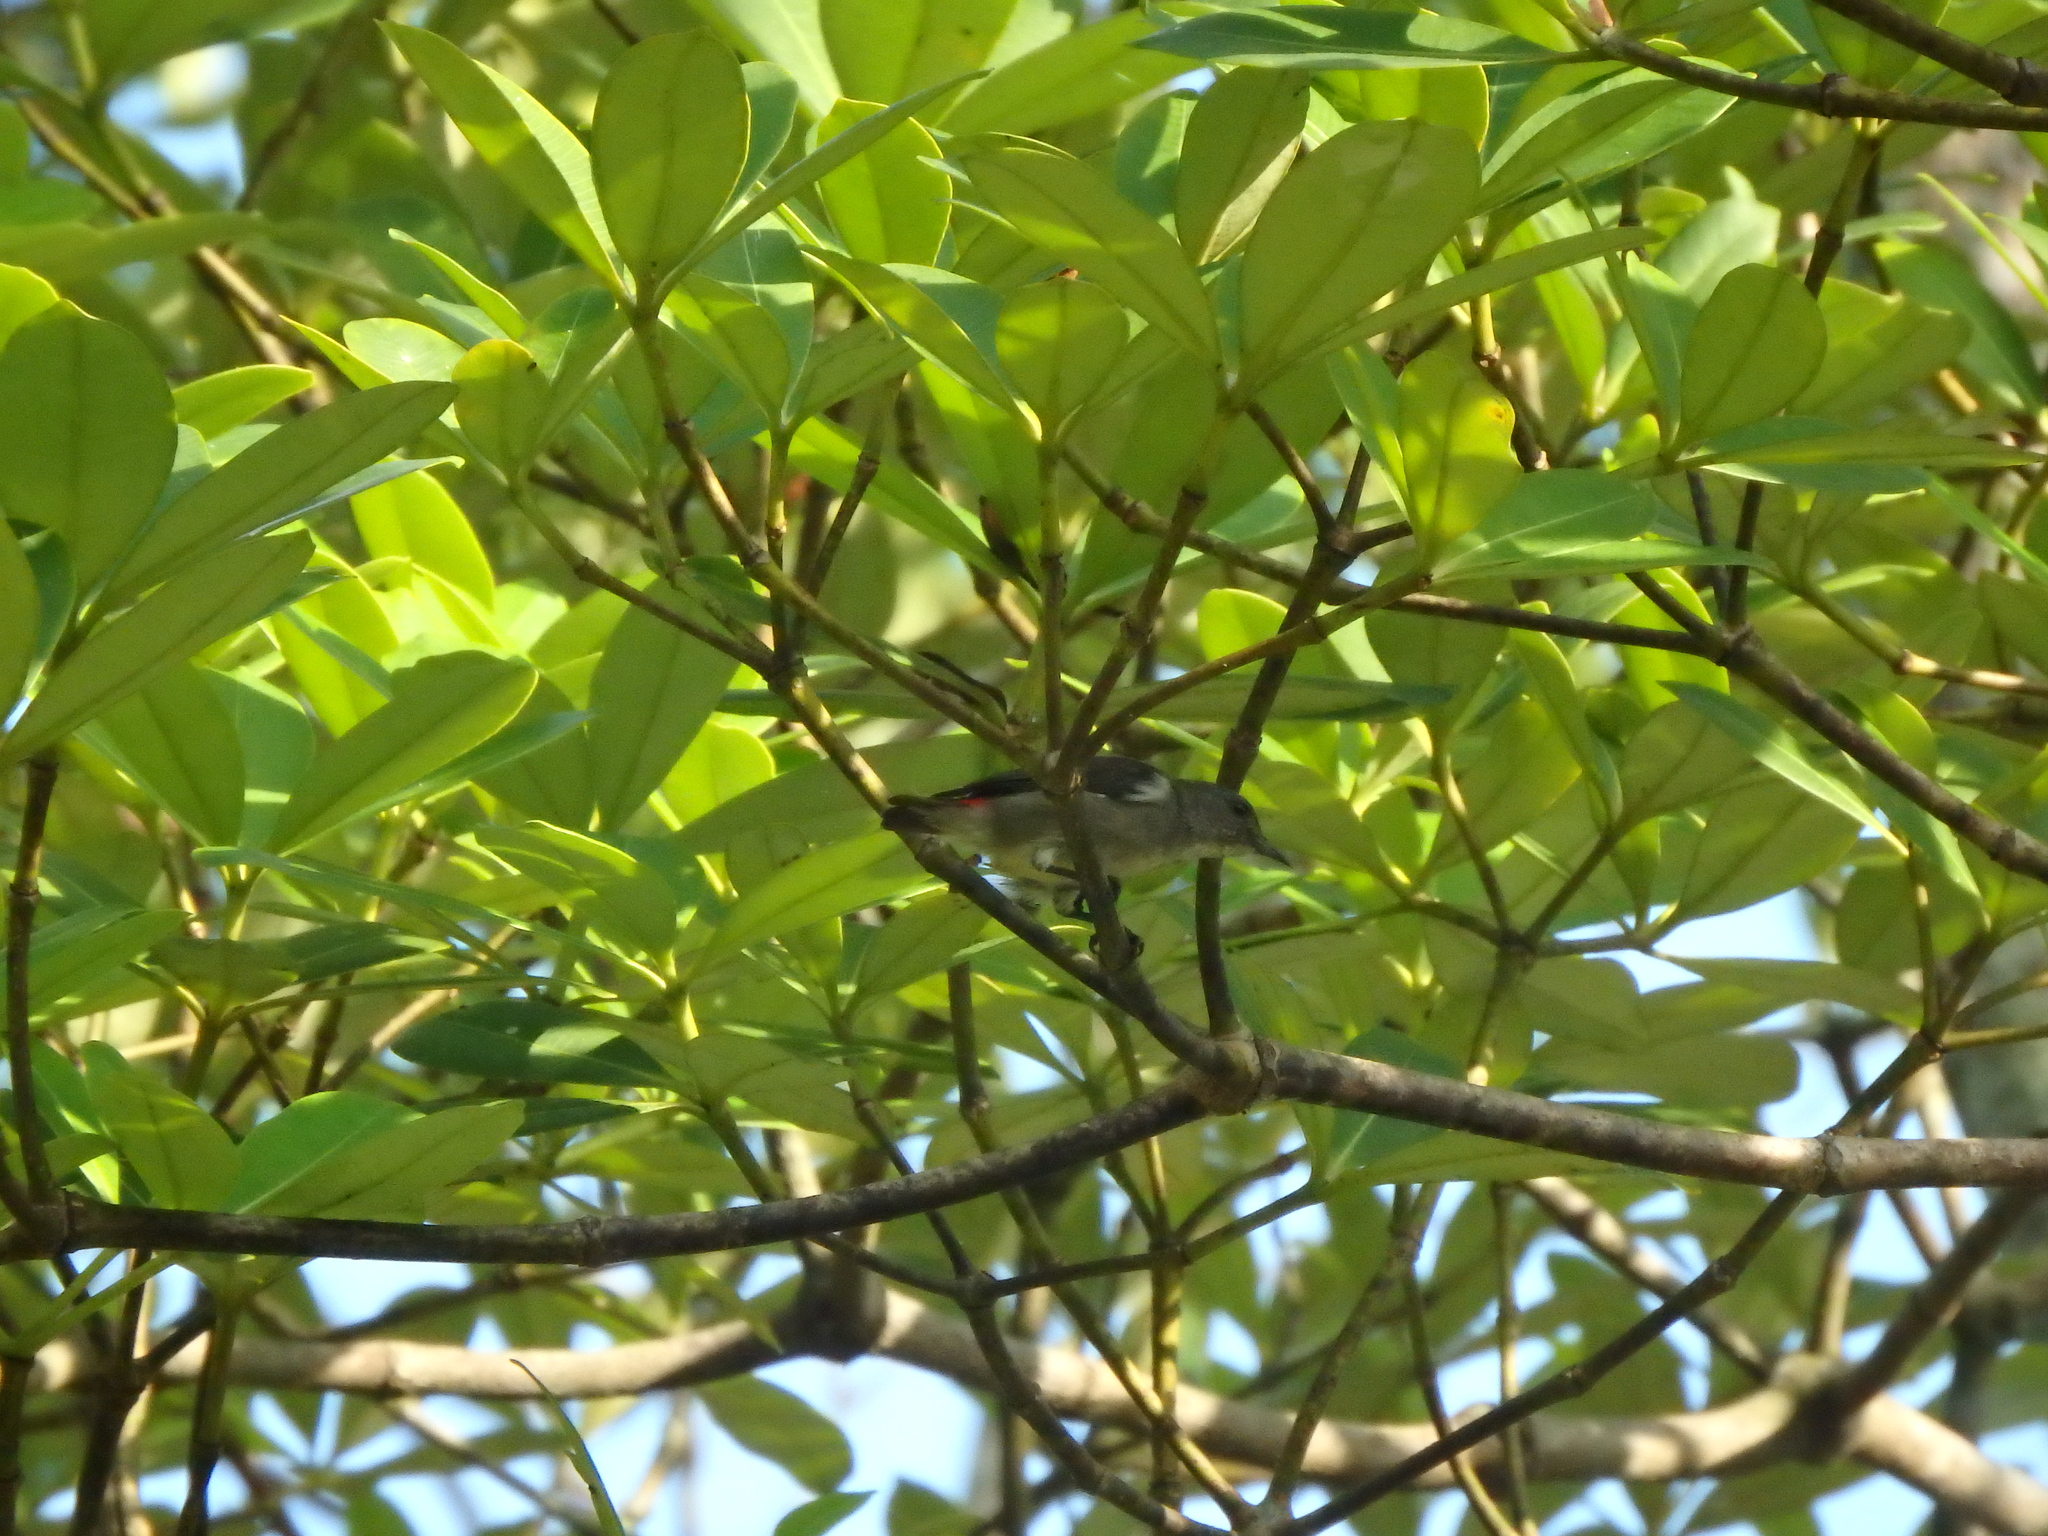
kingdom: Animalia
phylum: Chordata
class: Aves
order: Passeriformes
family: Dicaeidae
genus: Dicaeum
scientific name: Dicaeum cruentatum
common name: Scarlet-backed flowerpecker
